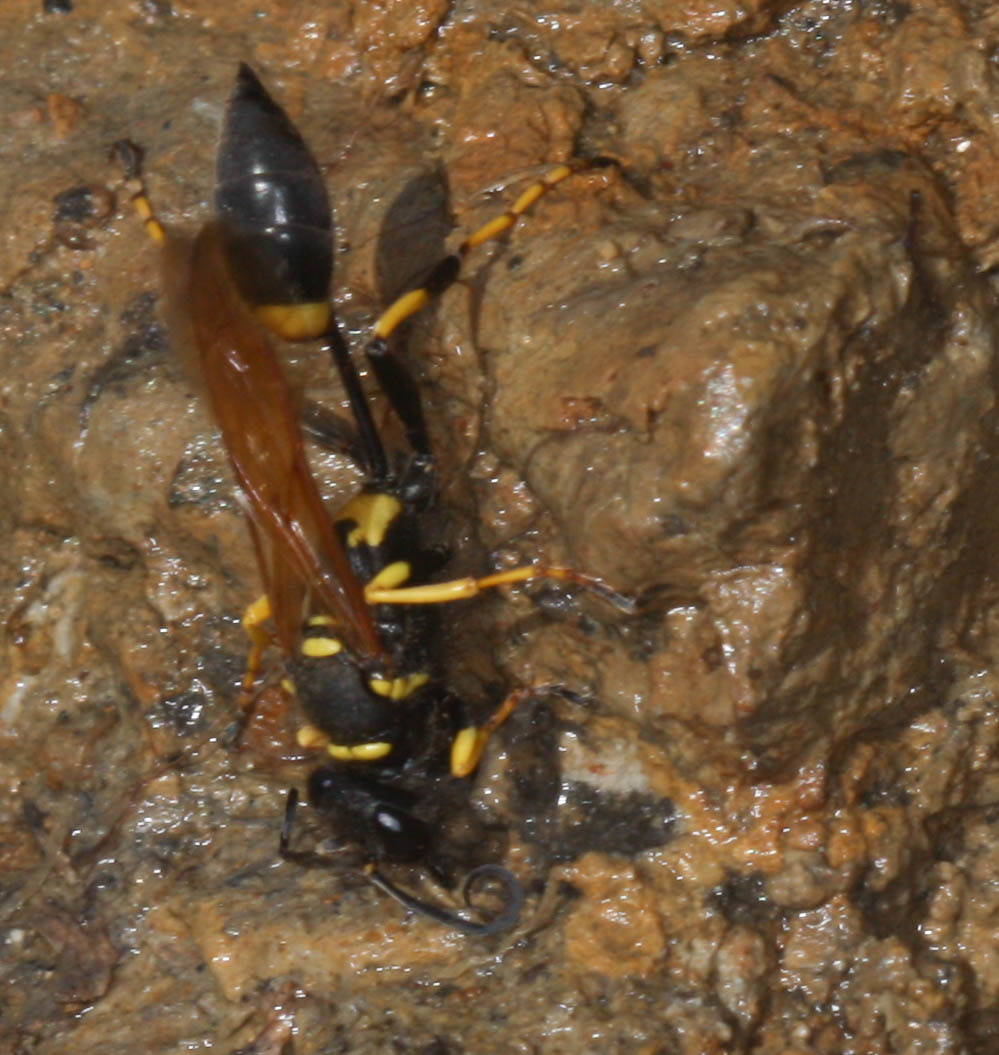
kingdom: Animalia
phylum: Arthropoda
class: Insecta
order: Hymenoptera
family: Sphecidae
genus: Sceliphron
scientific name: Sceliphron caementarium
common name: Mud dauber
